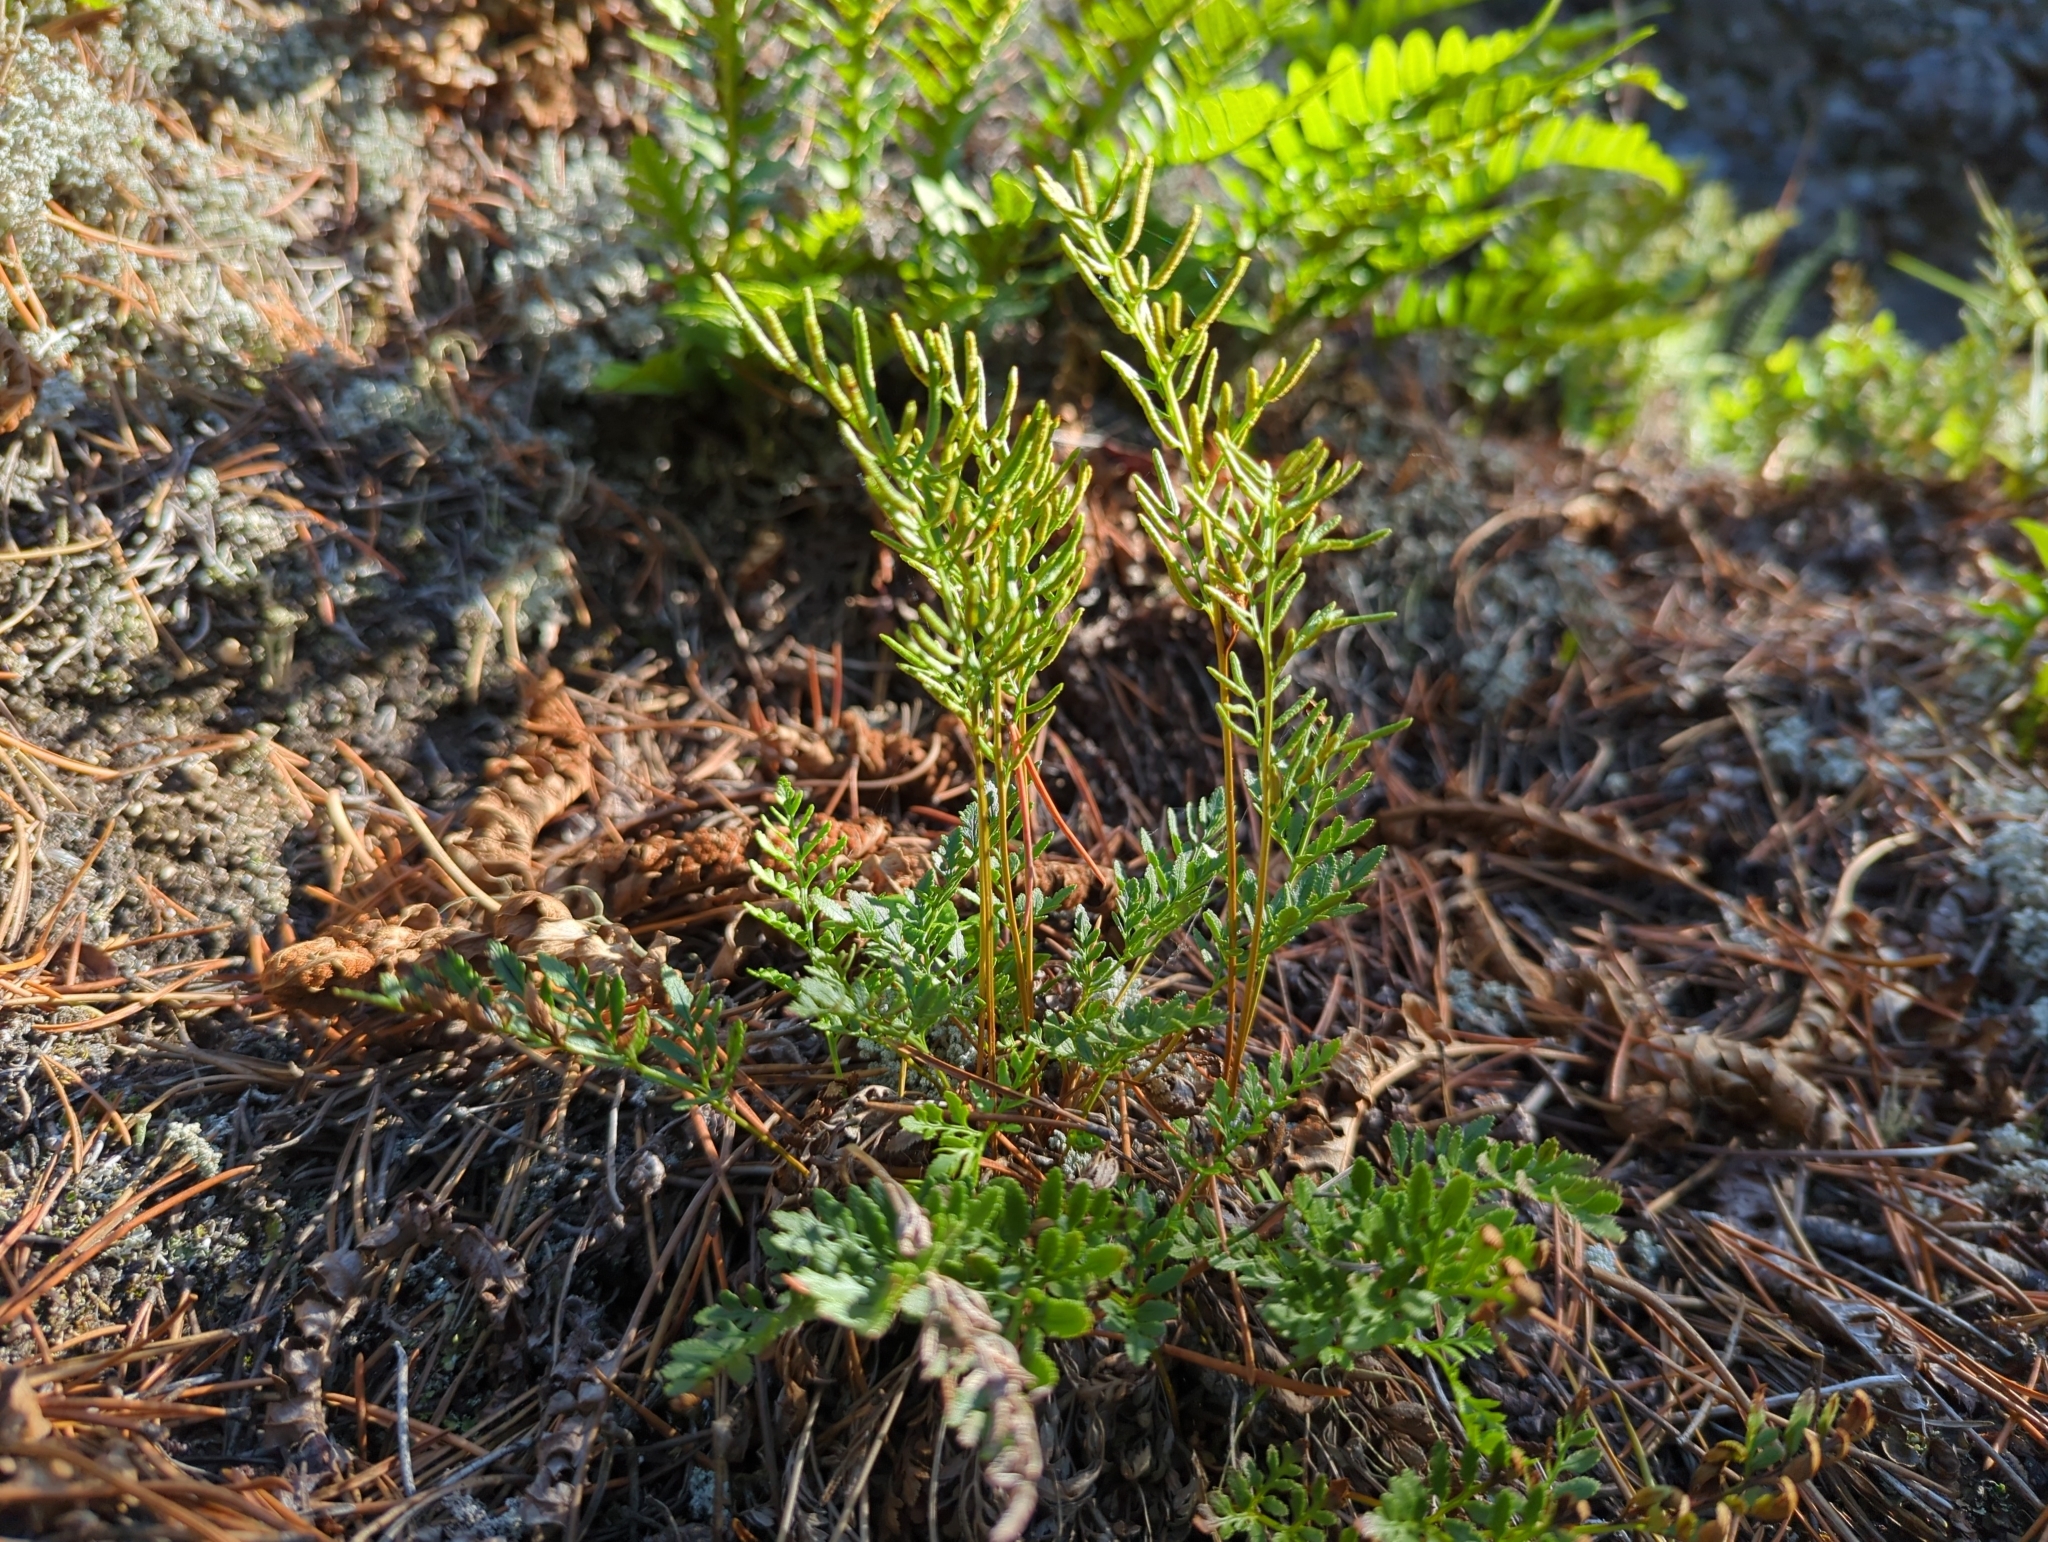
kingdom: Plantae
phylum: Tracheophyta
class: Polypodiopsida
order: Polypodiales
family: Pteridaceae
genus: Cryptogramma
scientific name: Cryptogramma acrostichoides
